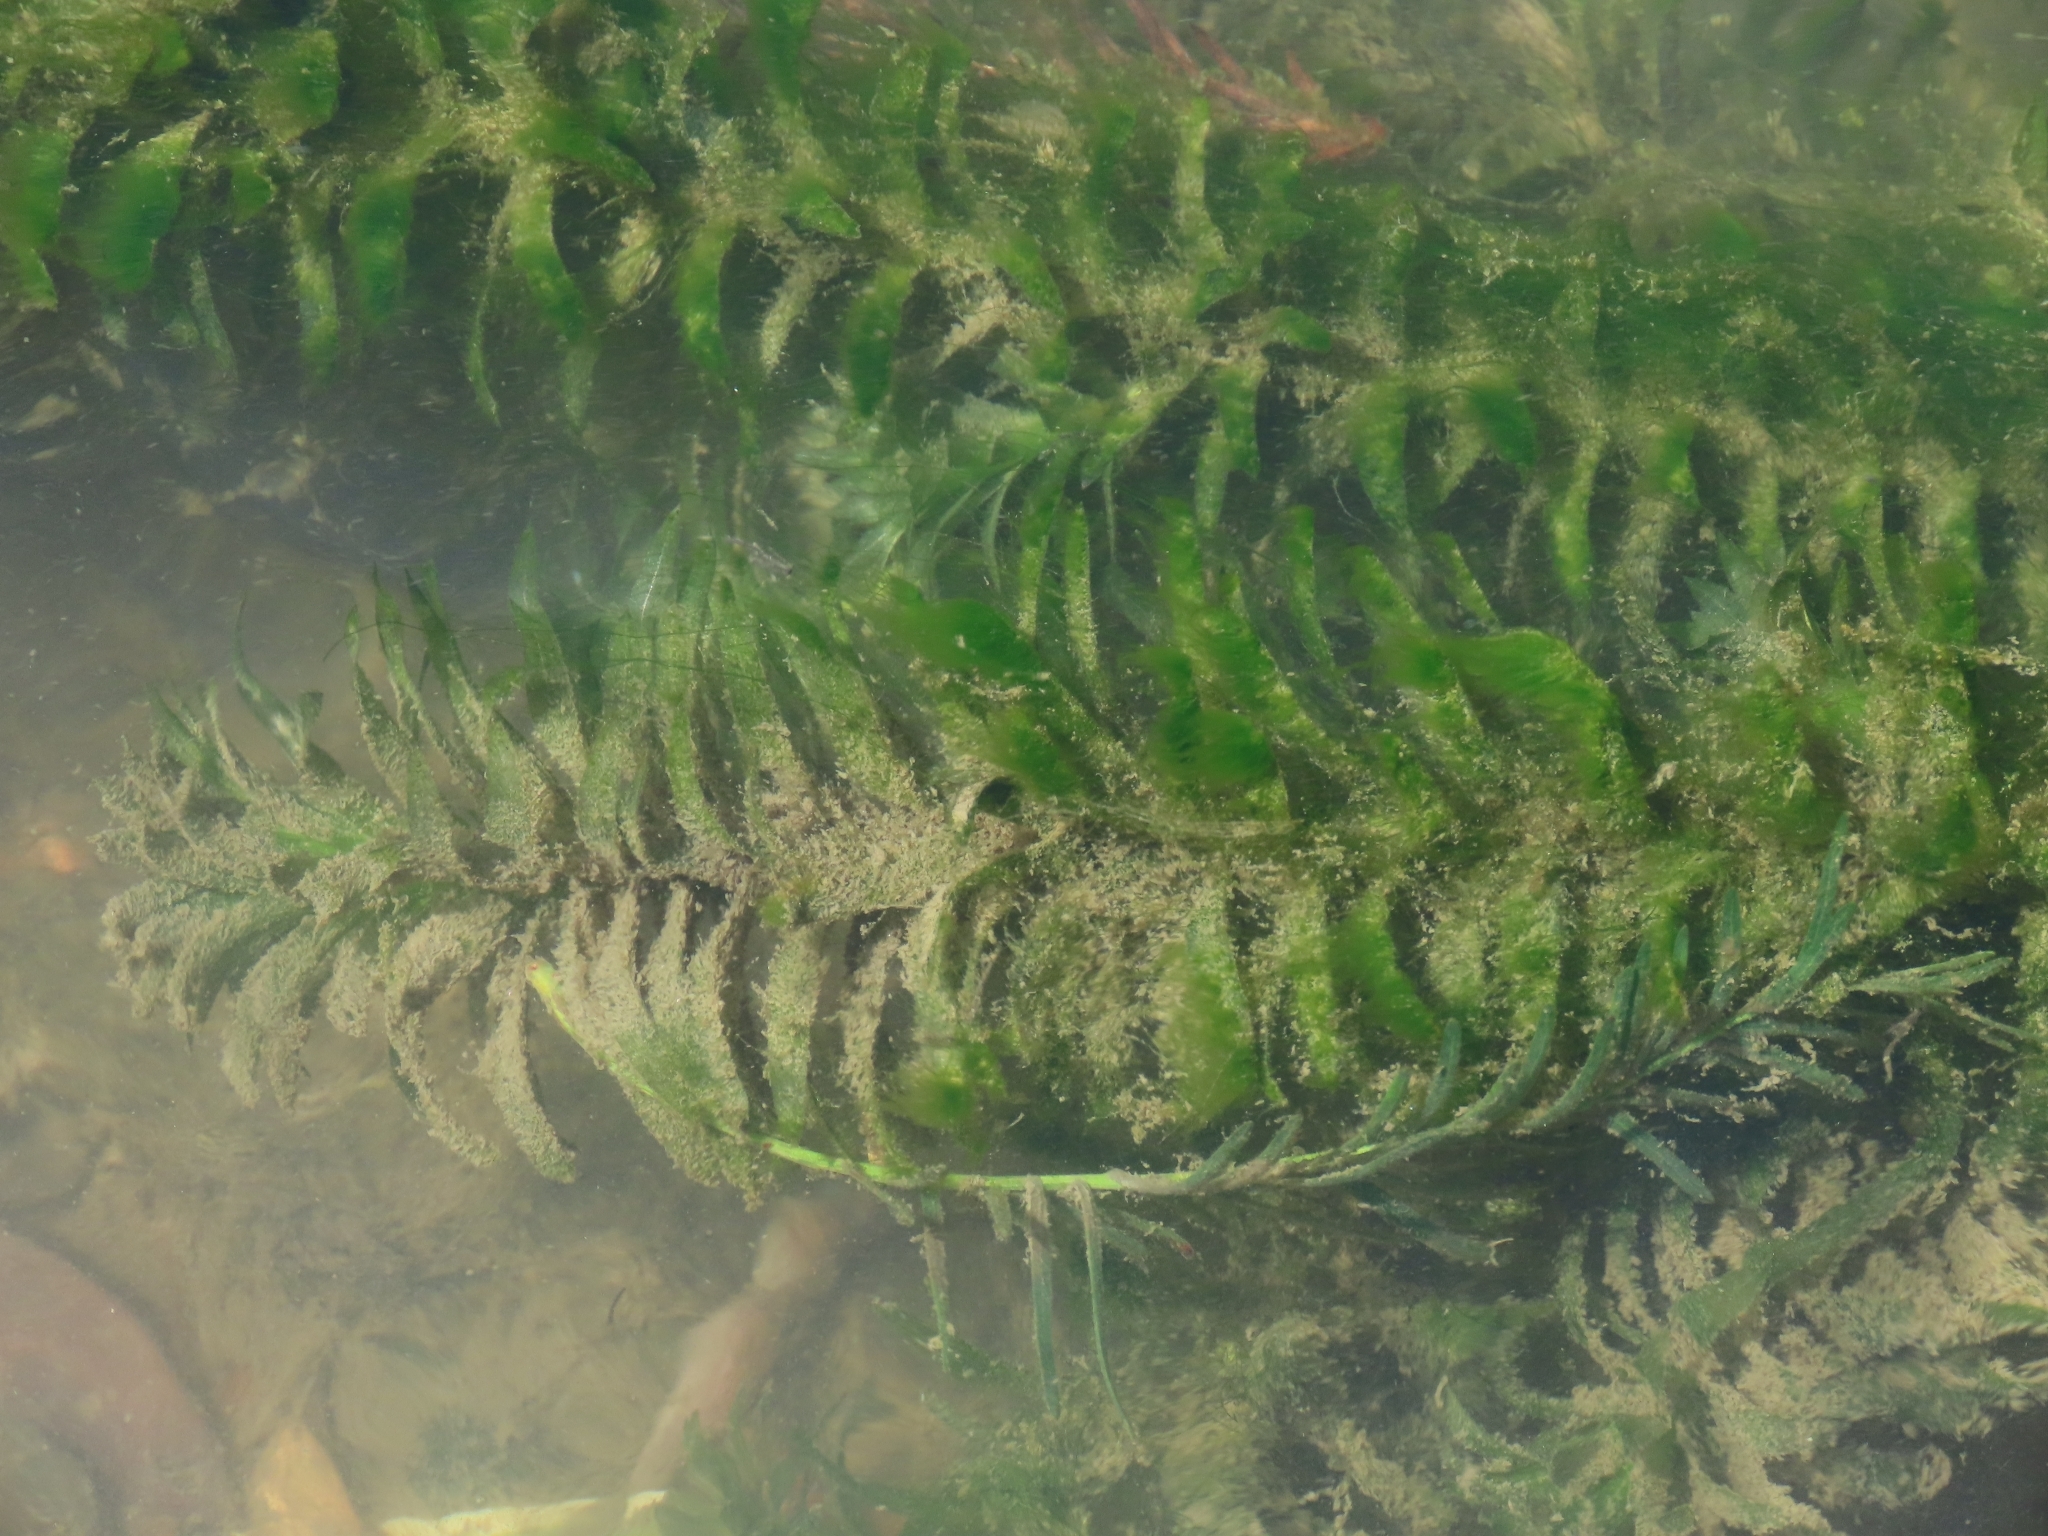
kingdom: Plantae
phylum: Tracheophyta
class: Liliopsida
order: Alismatales
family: Hydrocharitaceae
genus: Elodea
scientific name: Elodea densa
